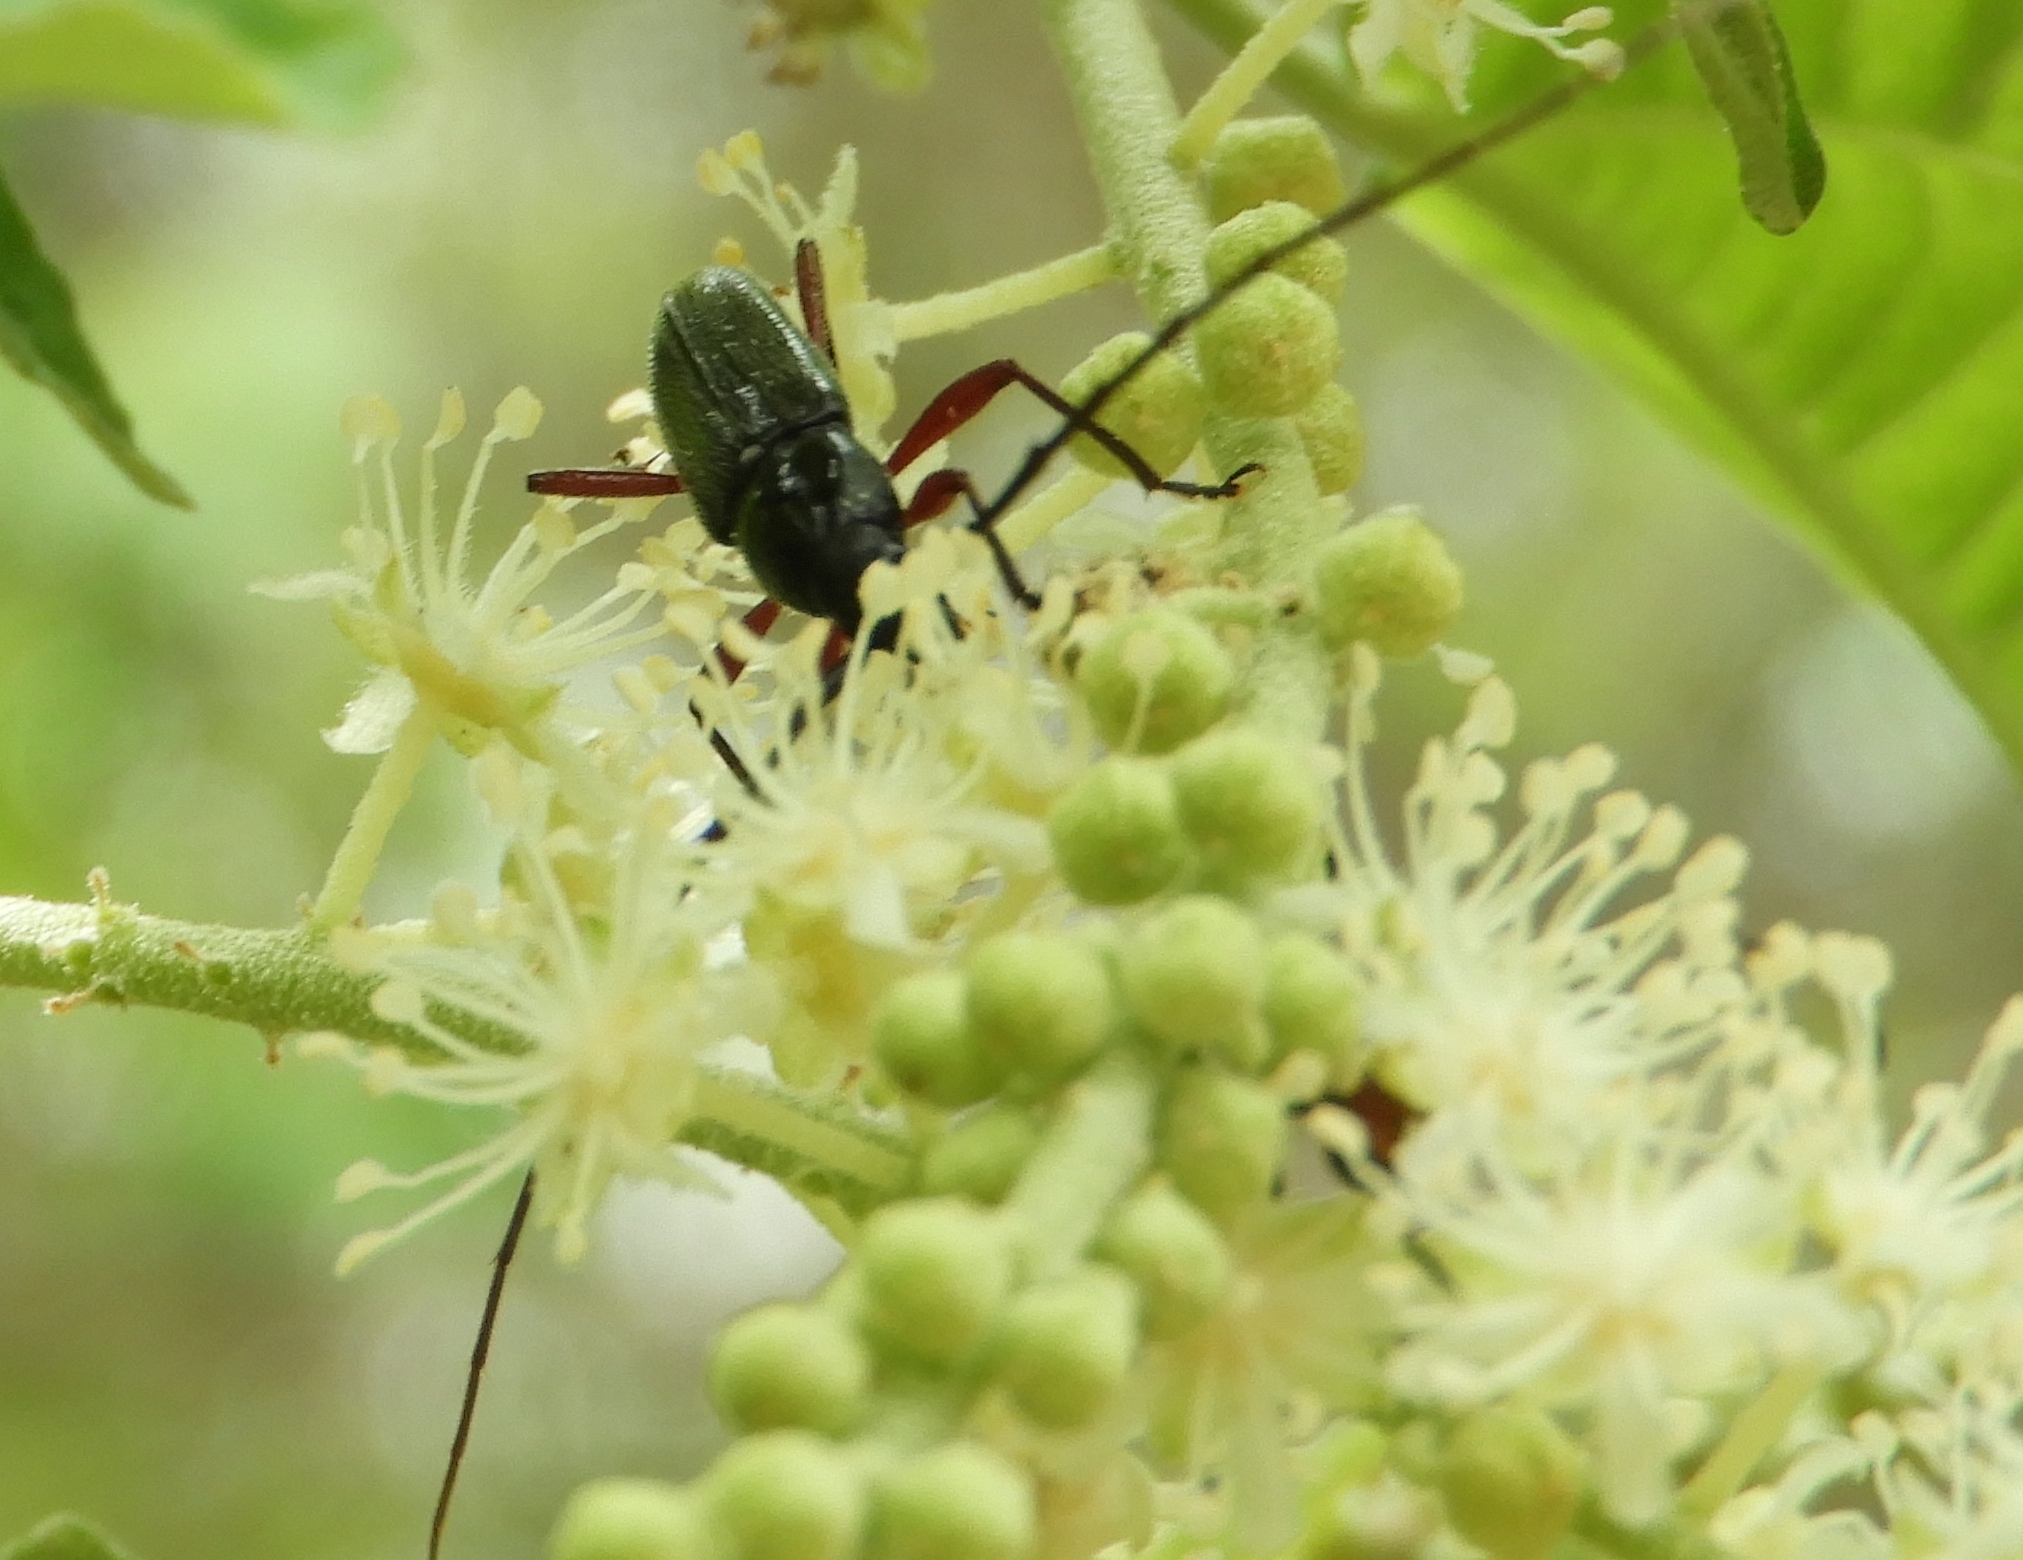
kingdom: Animalia
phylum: Arthropoda
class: Insecta
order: Coleoptera
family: Cerambycidae
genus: Stenosphenus
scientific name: Stenosphenus
